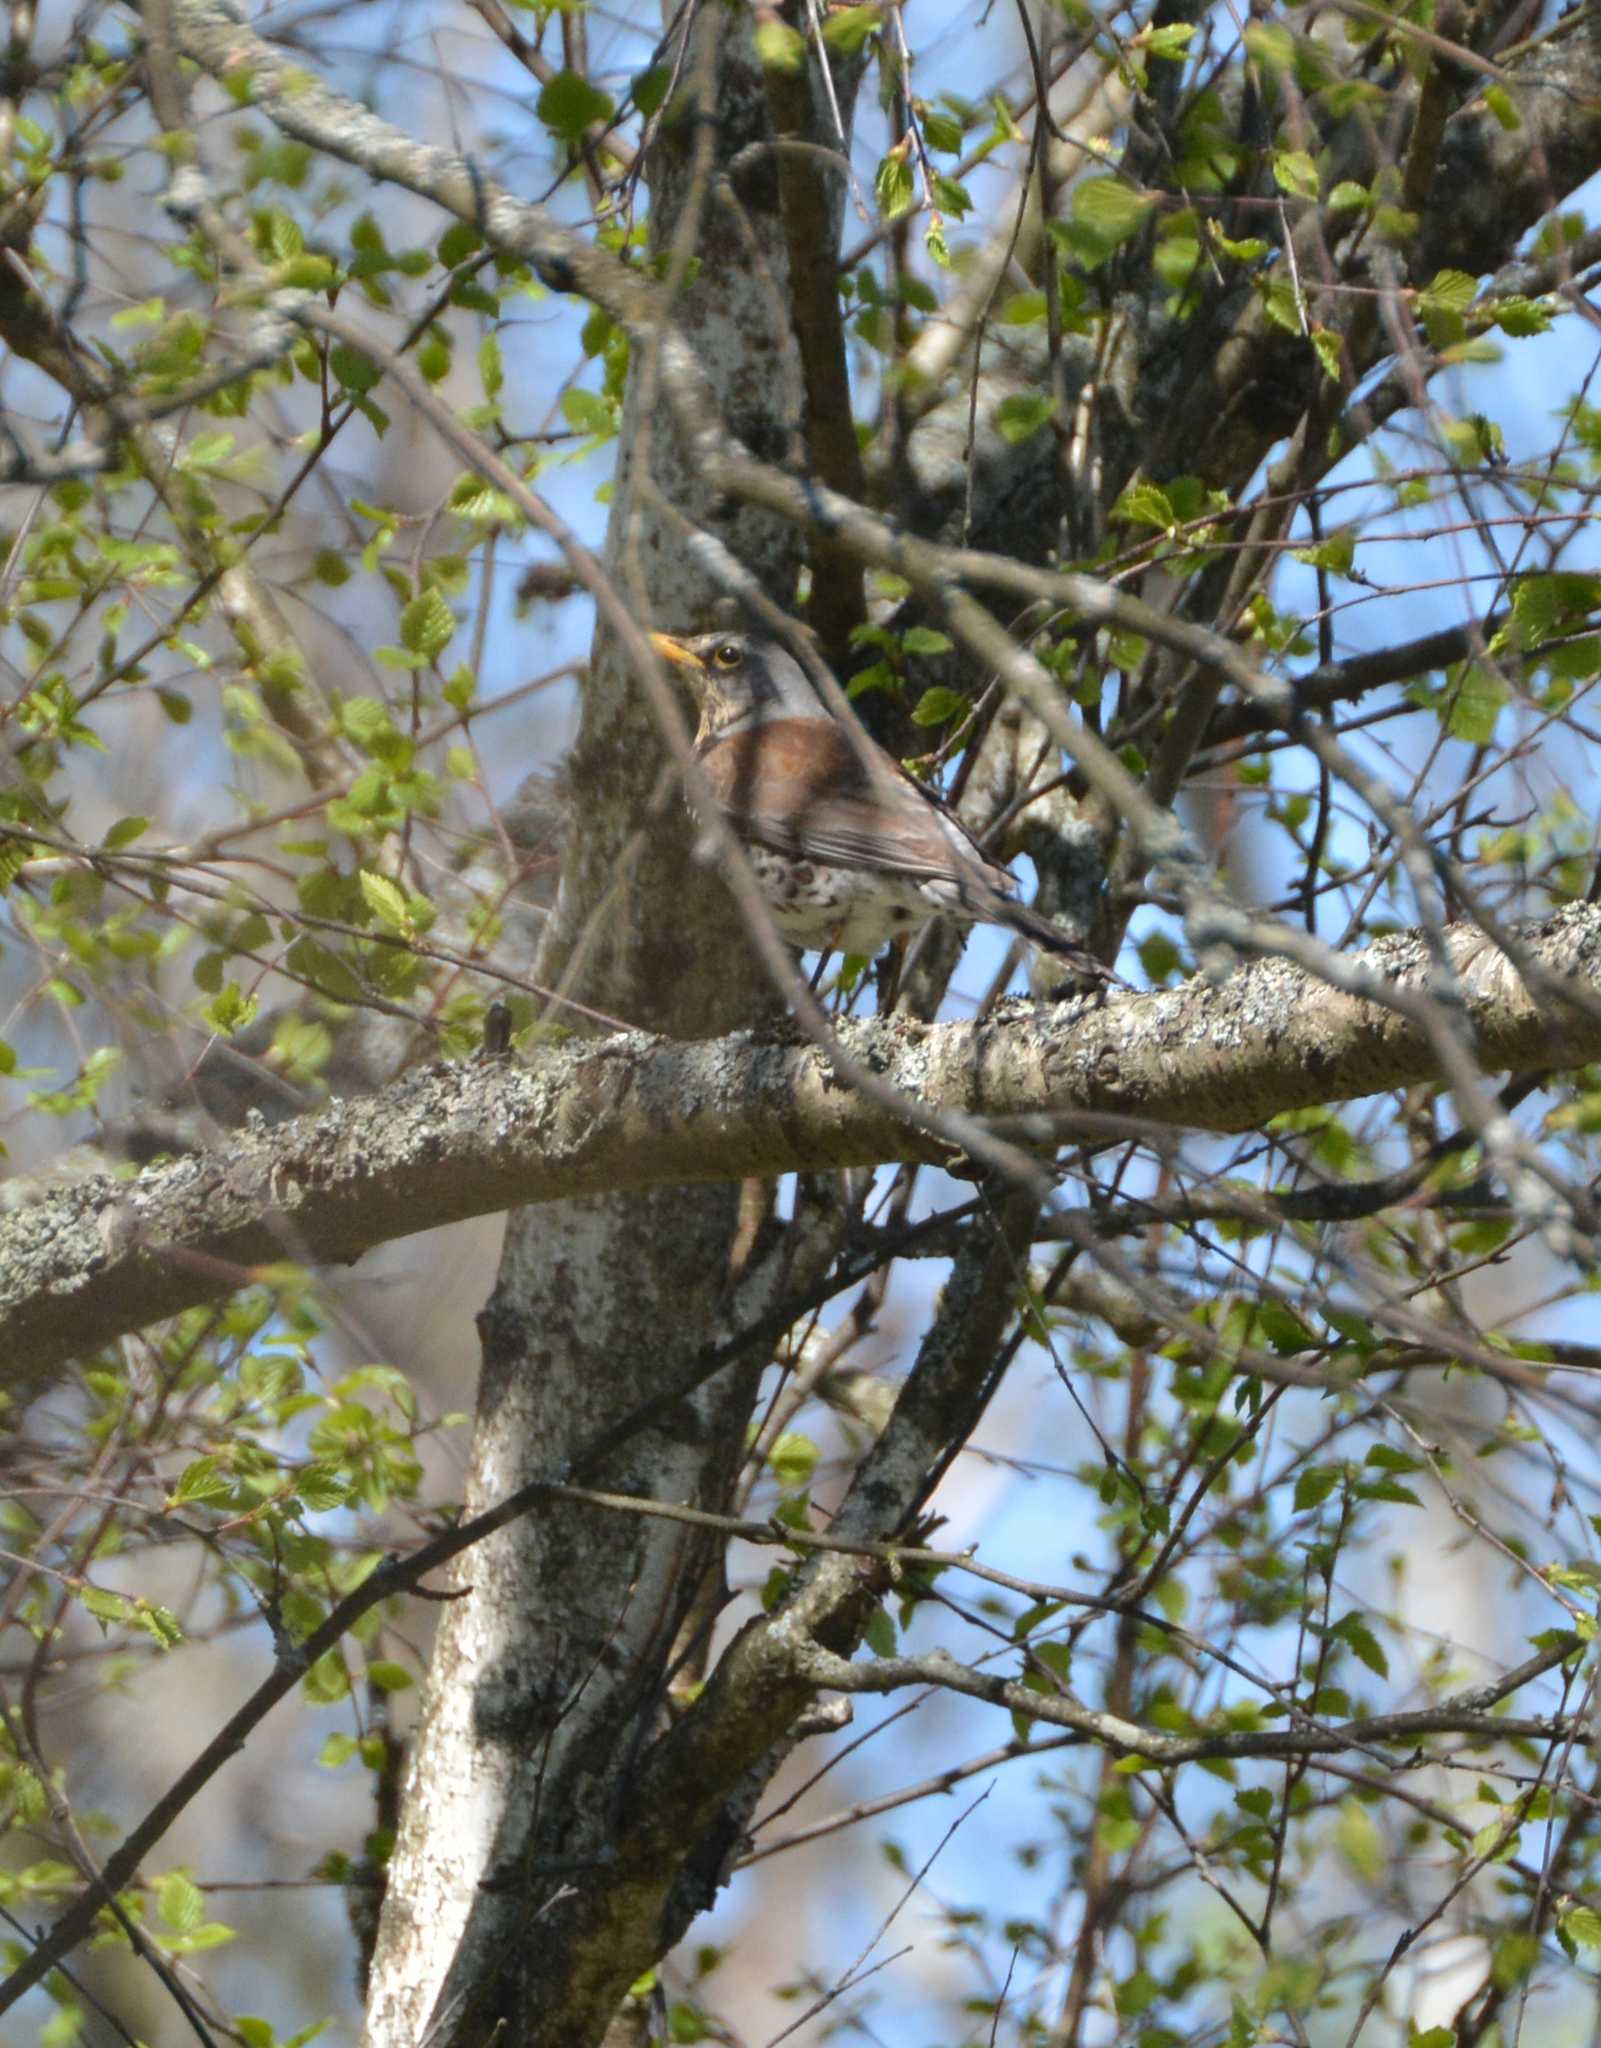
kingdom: Animalia
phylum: Chordata
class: Aves
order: Passeriformes
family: Turdidae
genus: Turdus
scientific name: Turdus pilaris
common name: Fieldfare
